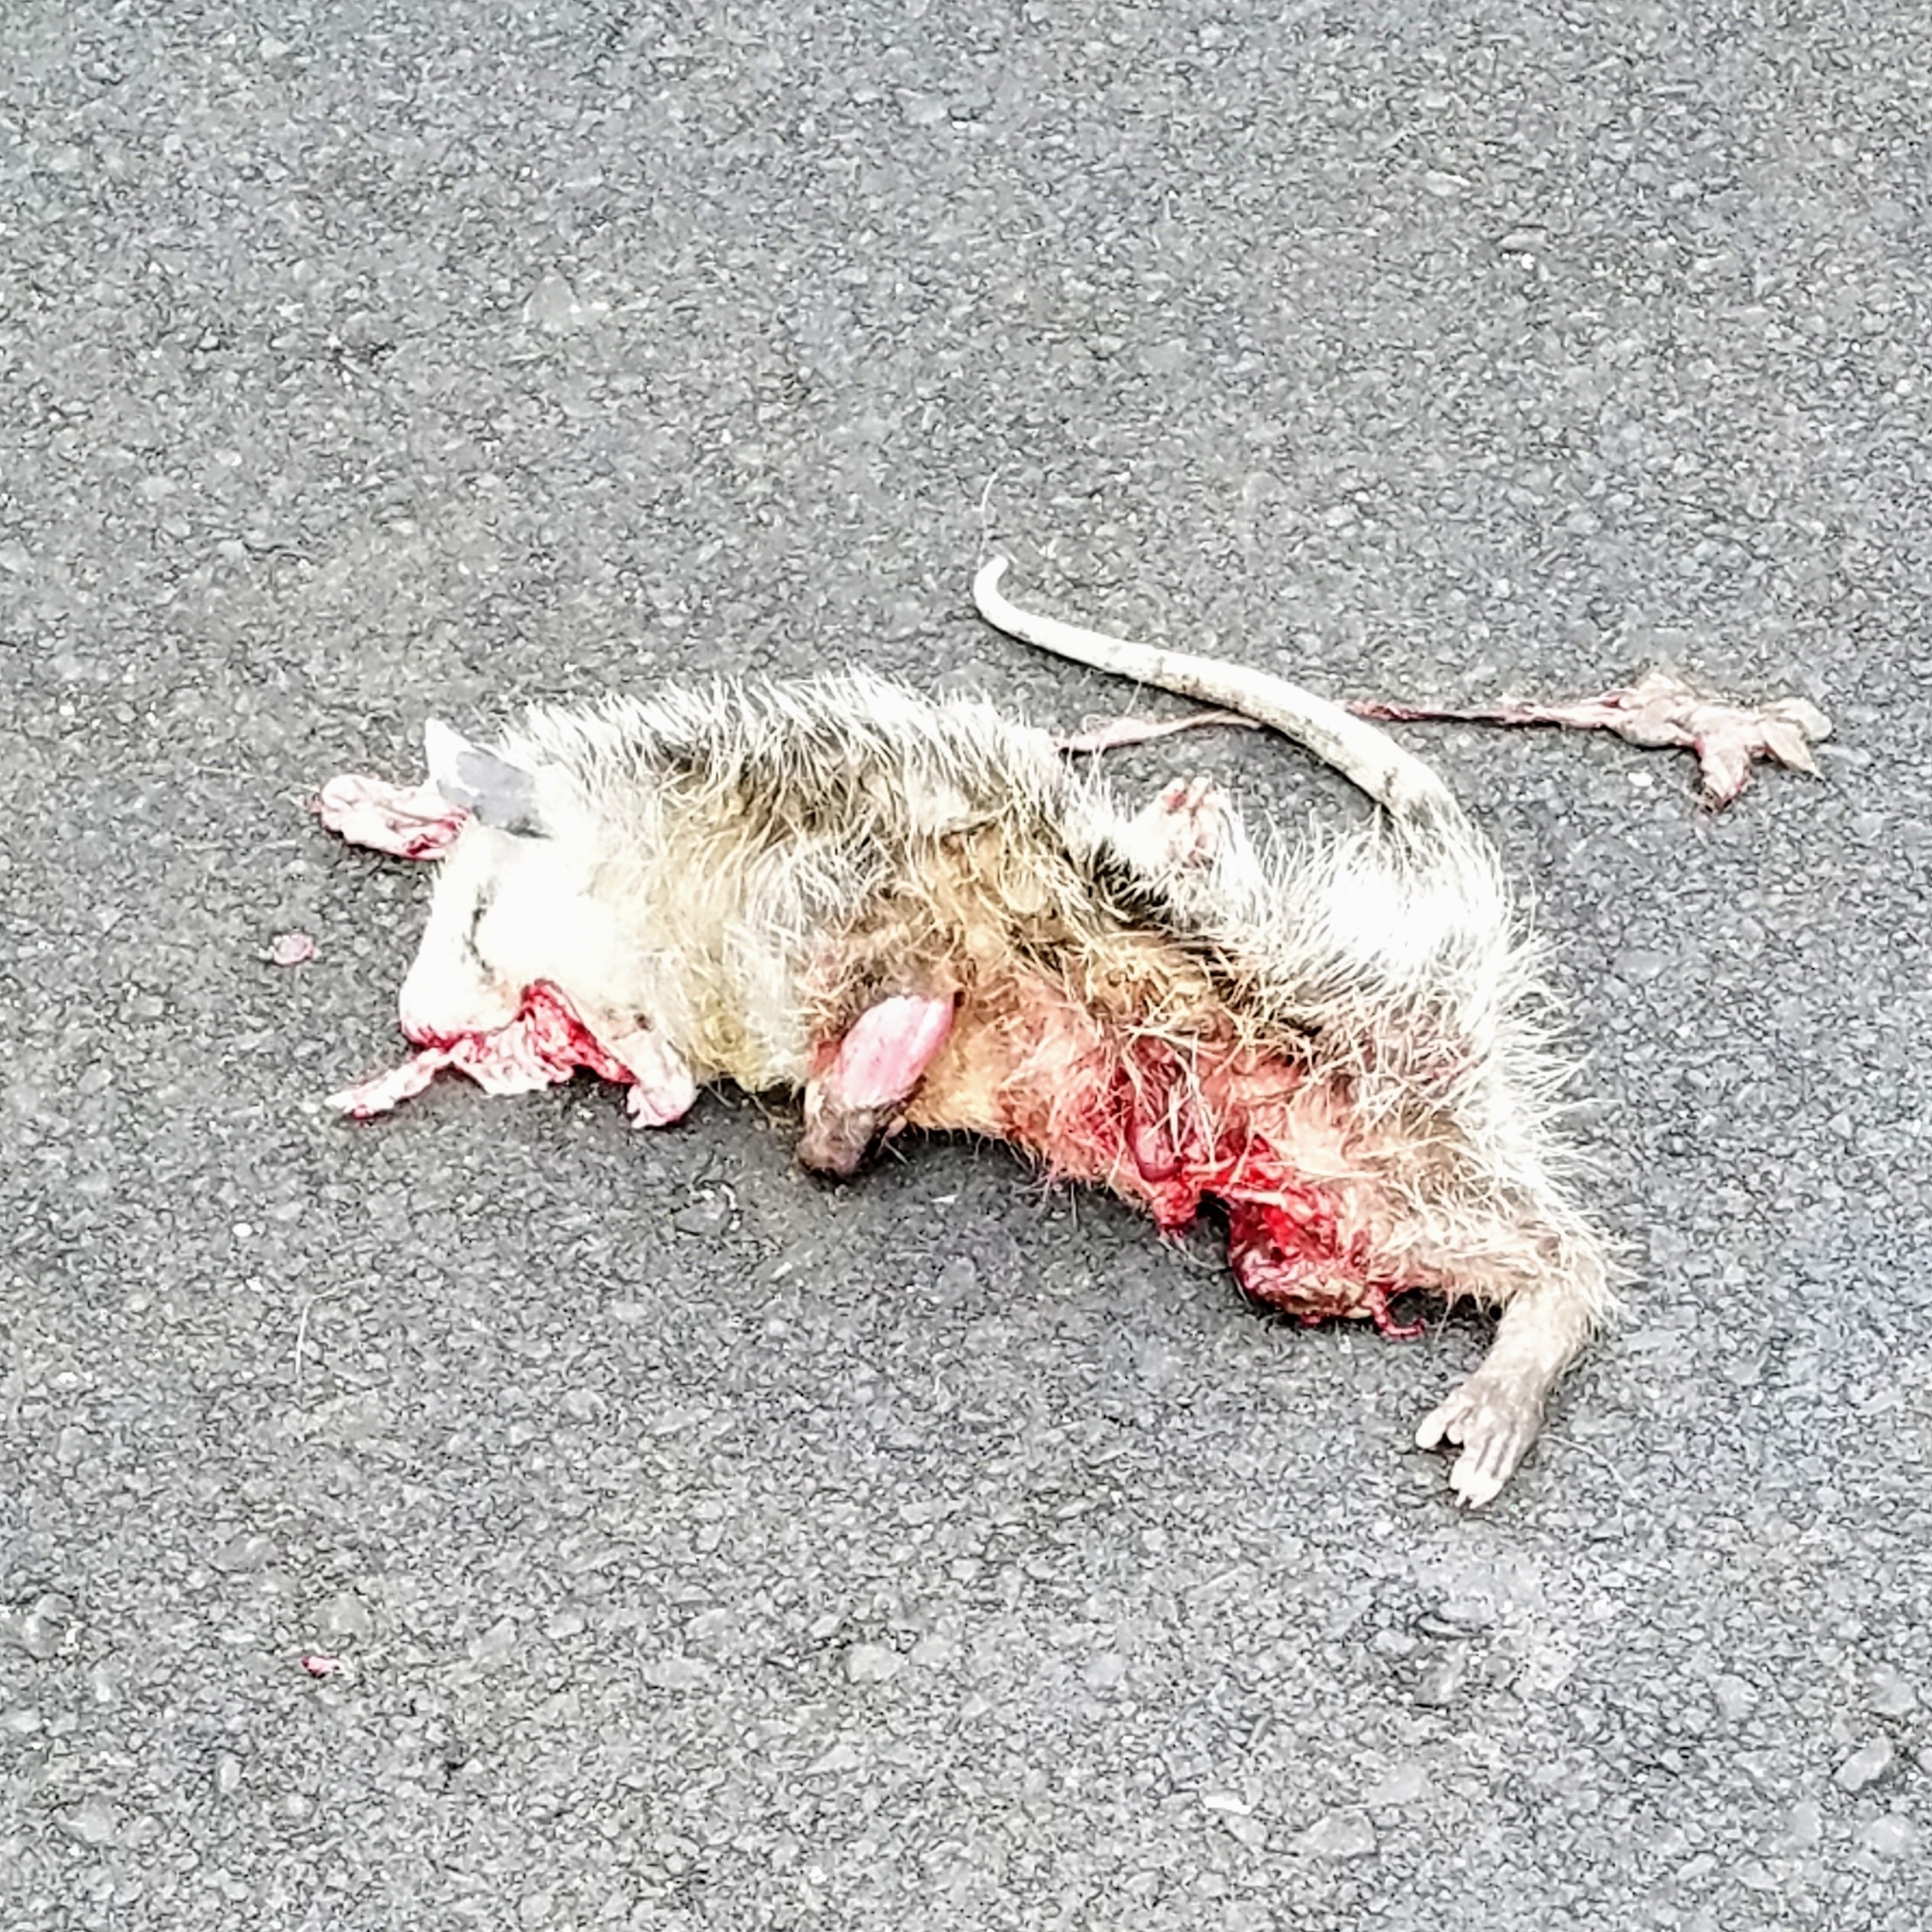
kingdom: Animalia
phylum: Chordata
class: Mammalia
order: Didelphimorphia
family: Didelphidae
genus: Didelphis
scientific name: Didelphis virginiana
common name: Virginia opossum
